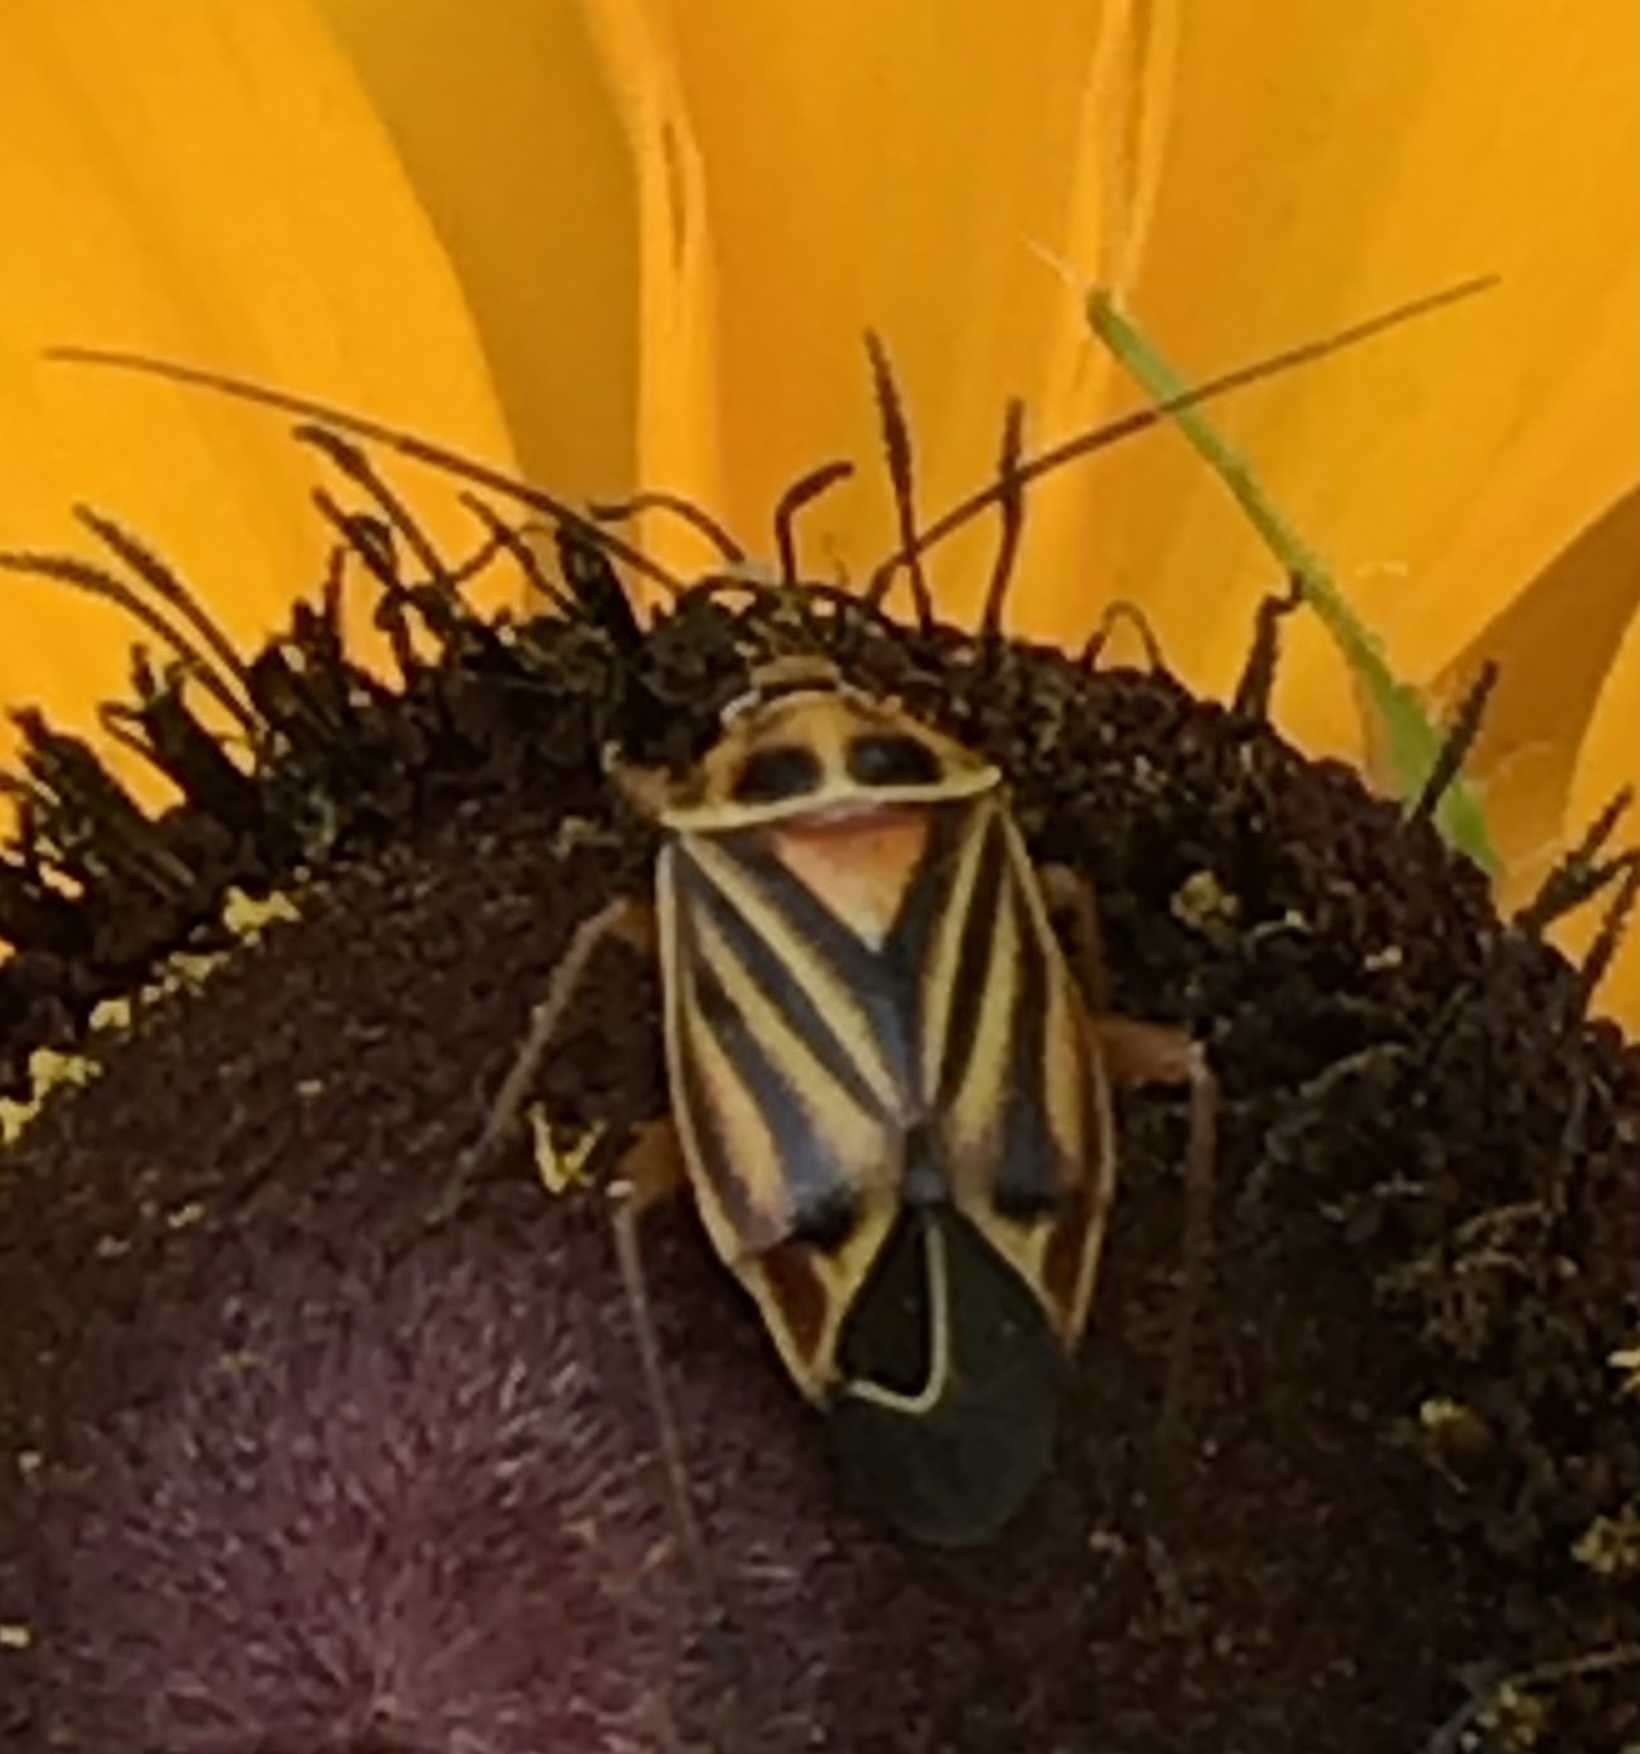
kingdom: Animalia
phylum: Arthropoda
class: Insecta
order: Hemiptera
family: Miridae
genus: Calocoris
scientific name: Calocoris barberi
